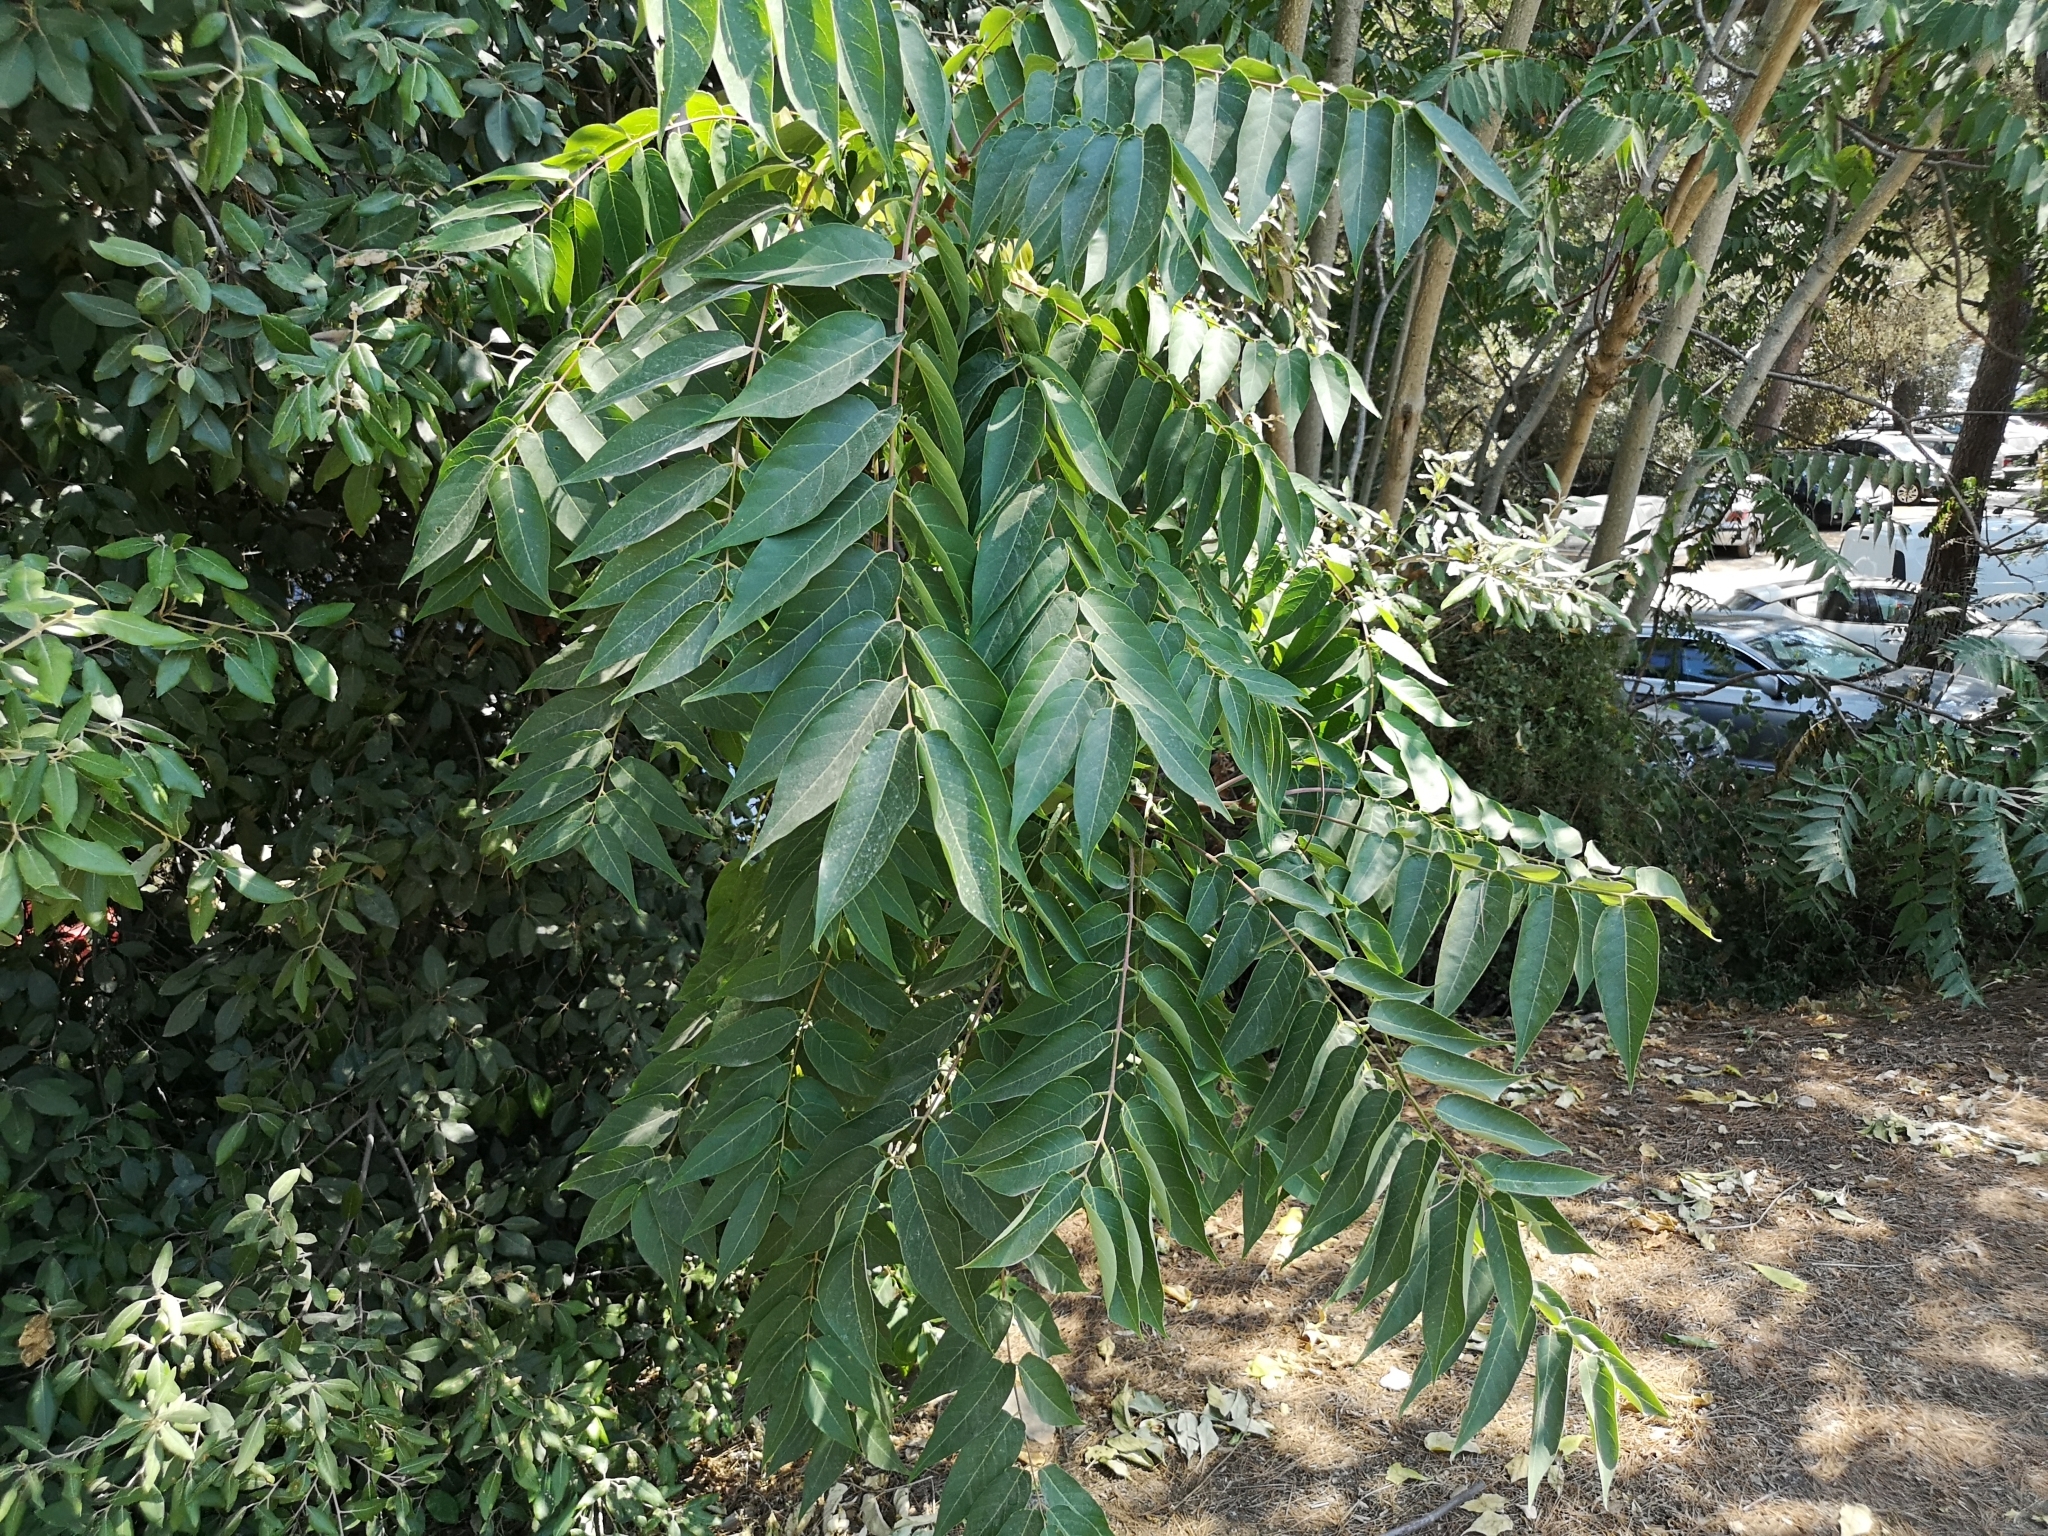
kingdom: Plantae
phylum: Tracheophyta
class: Magnoliopsida
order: Sapindales
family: Simaroubaceae
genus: Ailanthus
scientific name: Ailanthus altissima
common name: Tree-of-heaven
